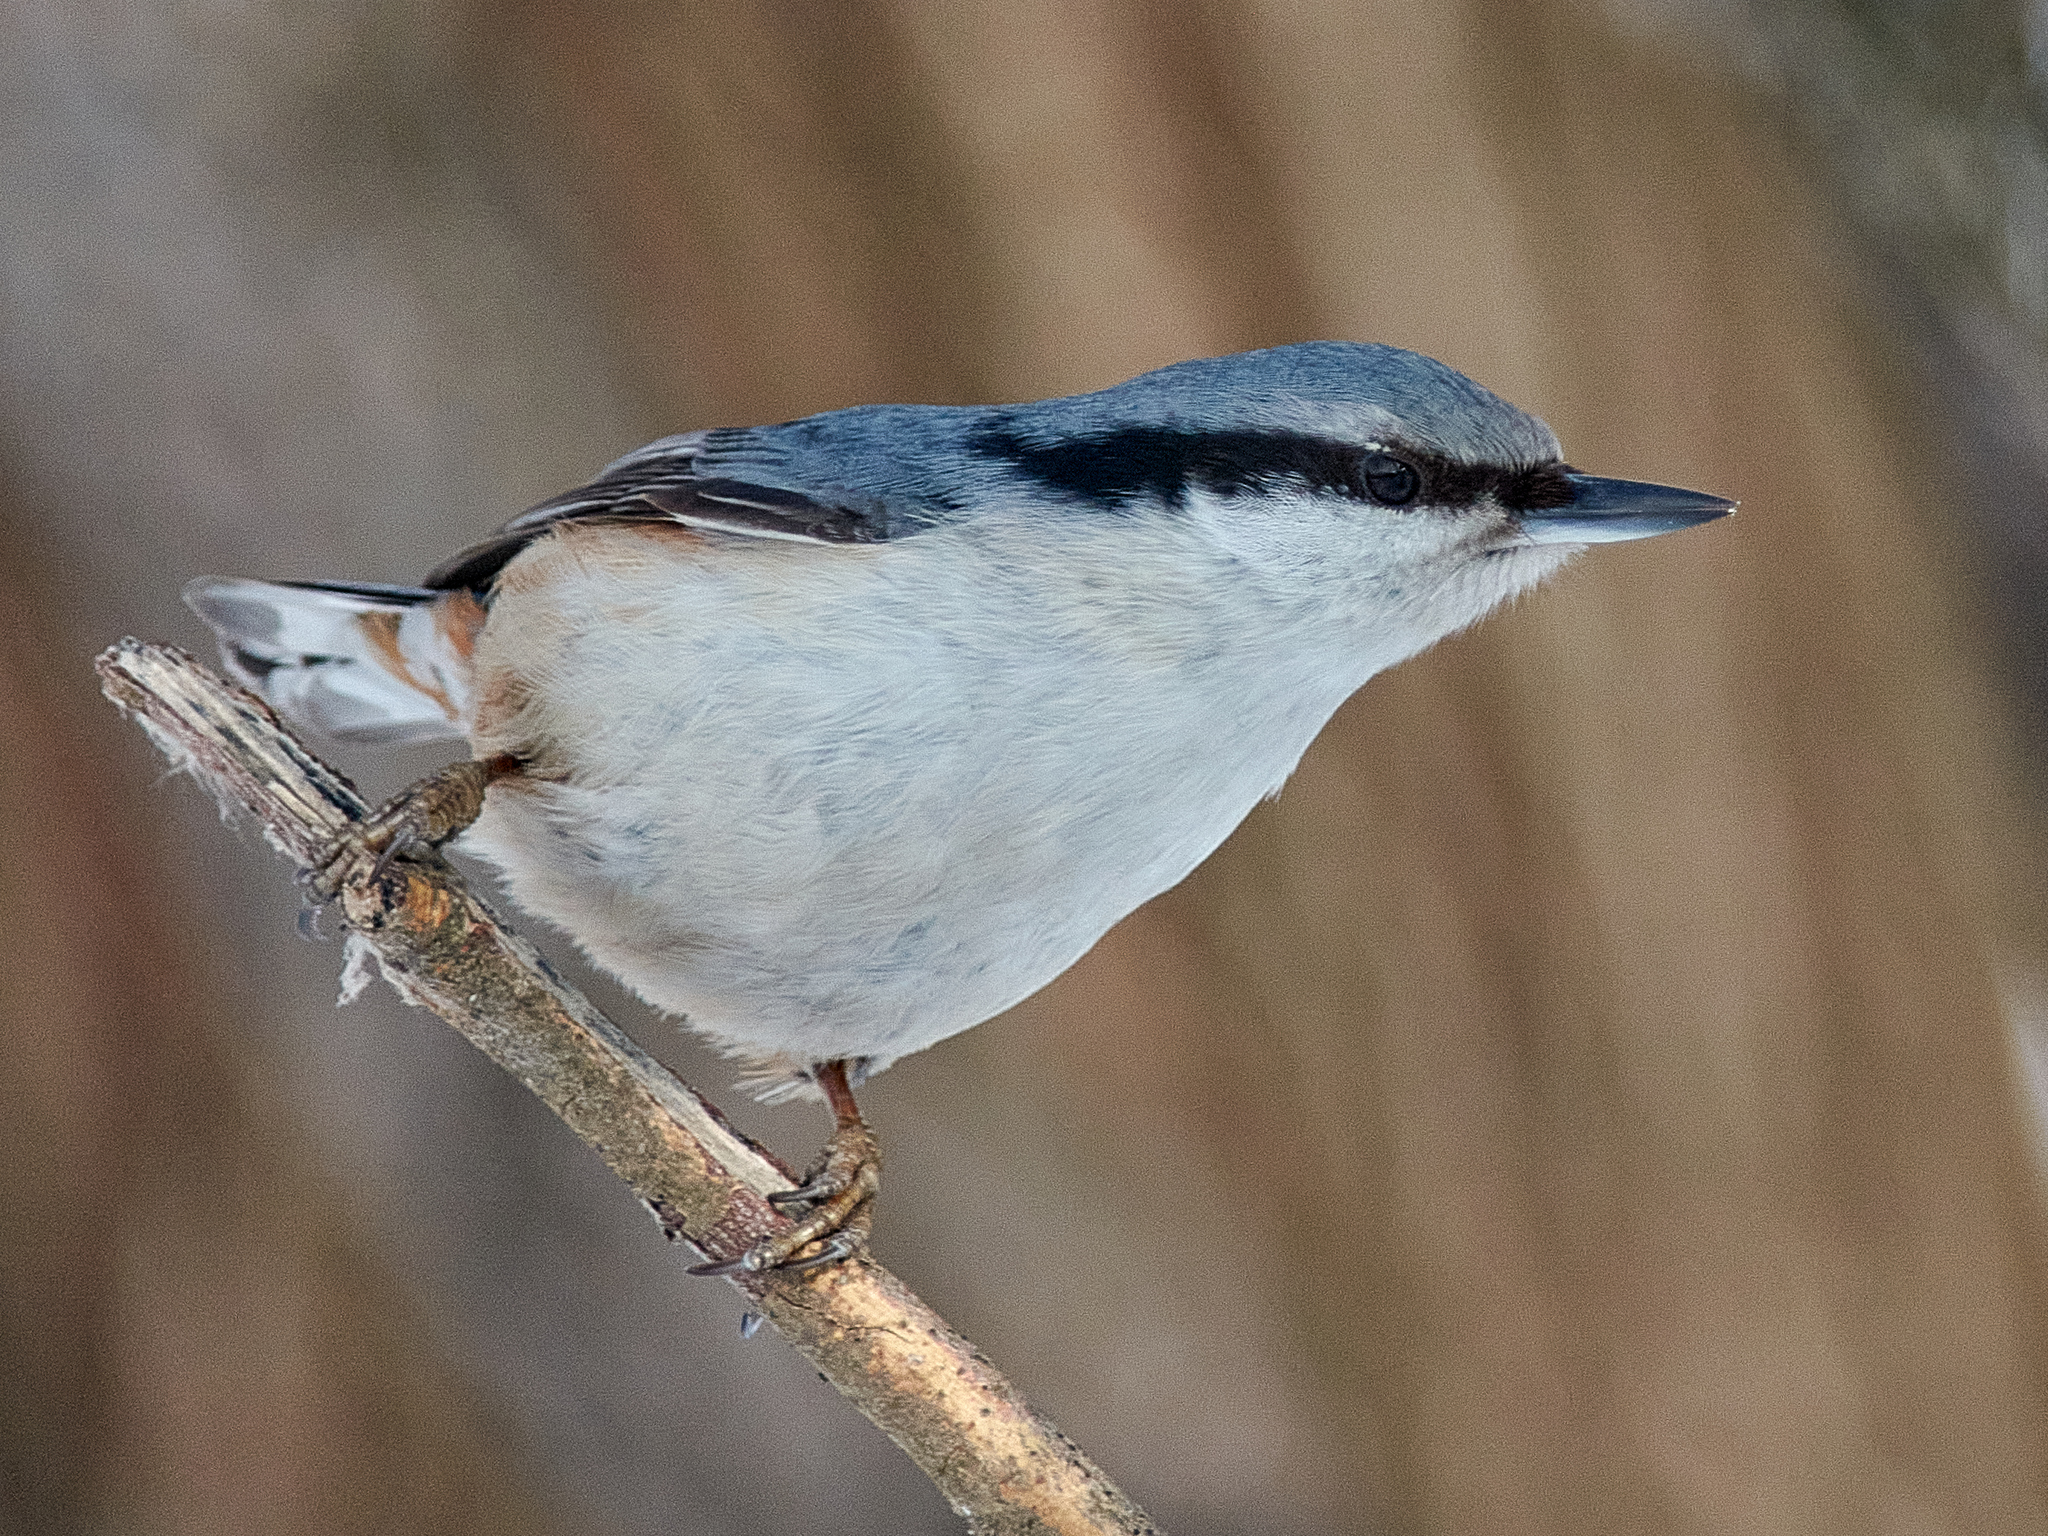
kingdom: Animalia
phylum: Chordata
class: Aves
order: Passeriformes
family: Sittidae
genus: Sitta
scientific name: Sitta europaea
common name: Eurasian nuthatch
